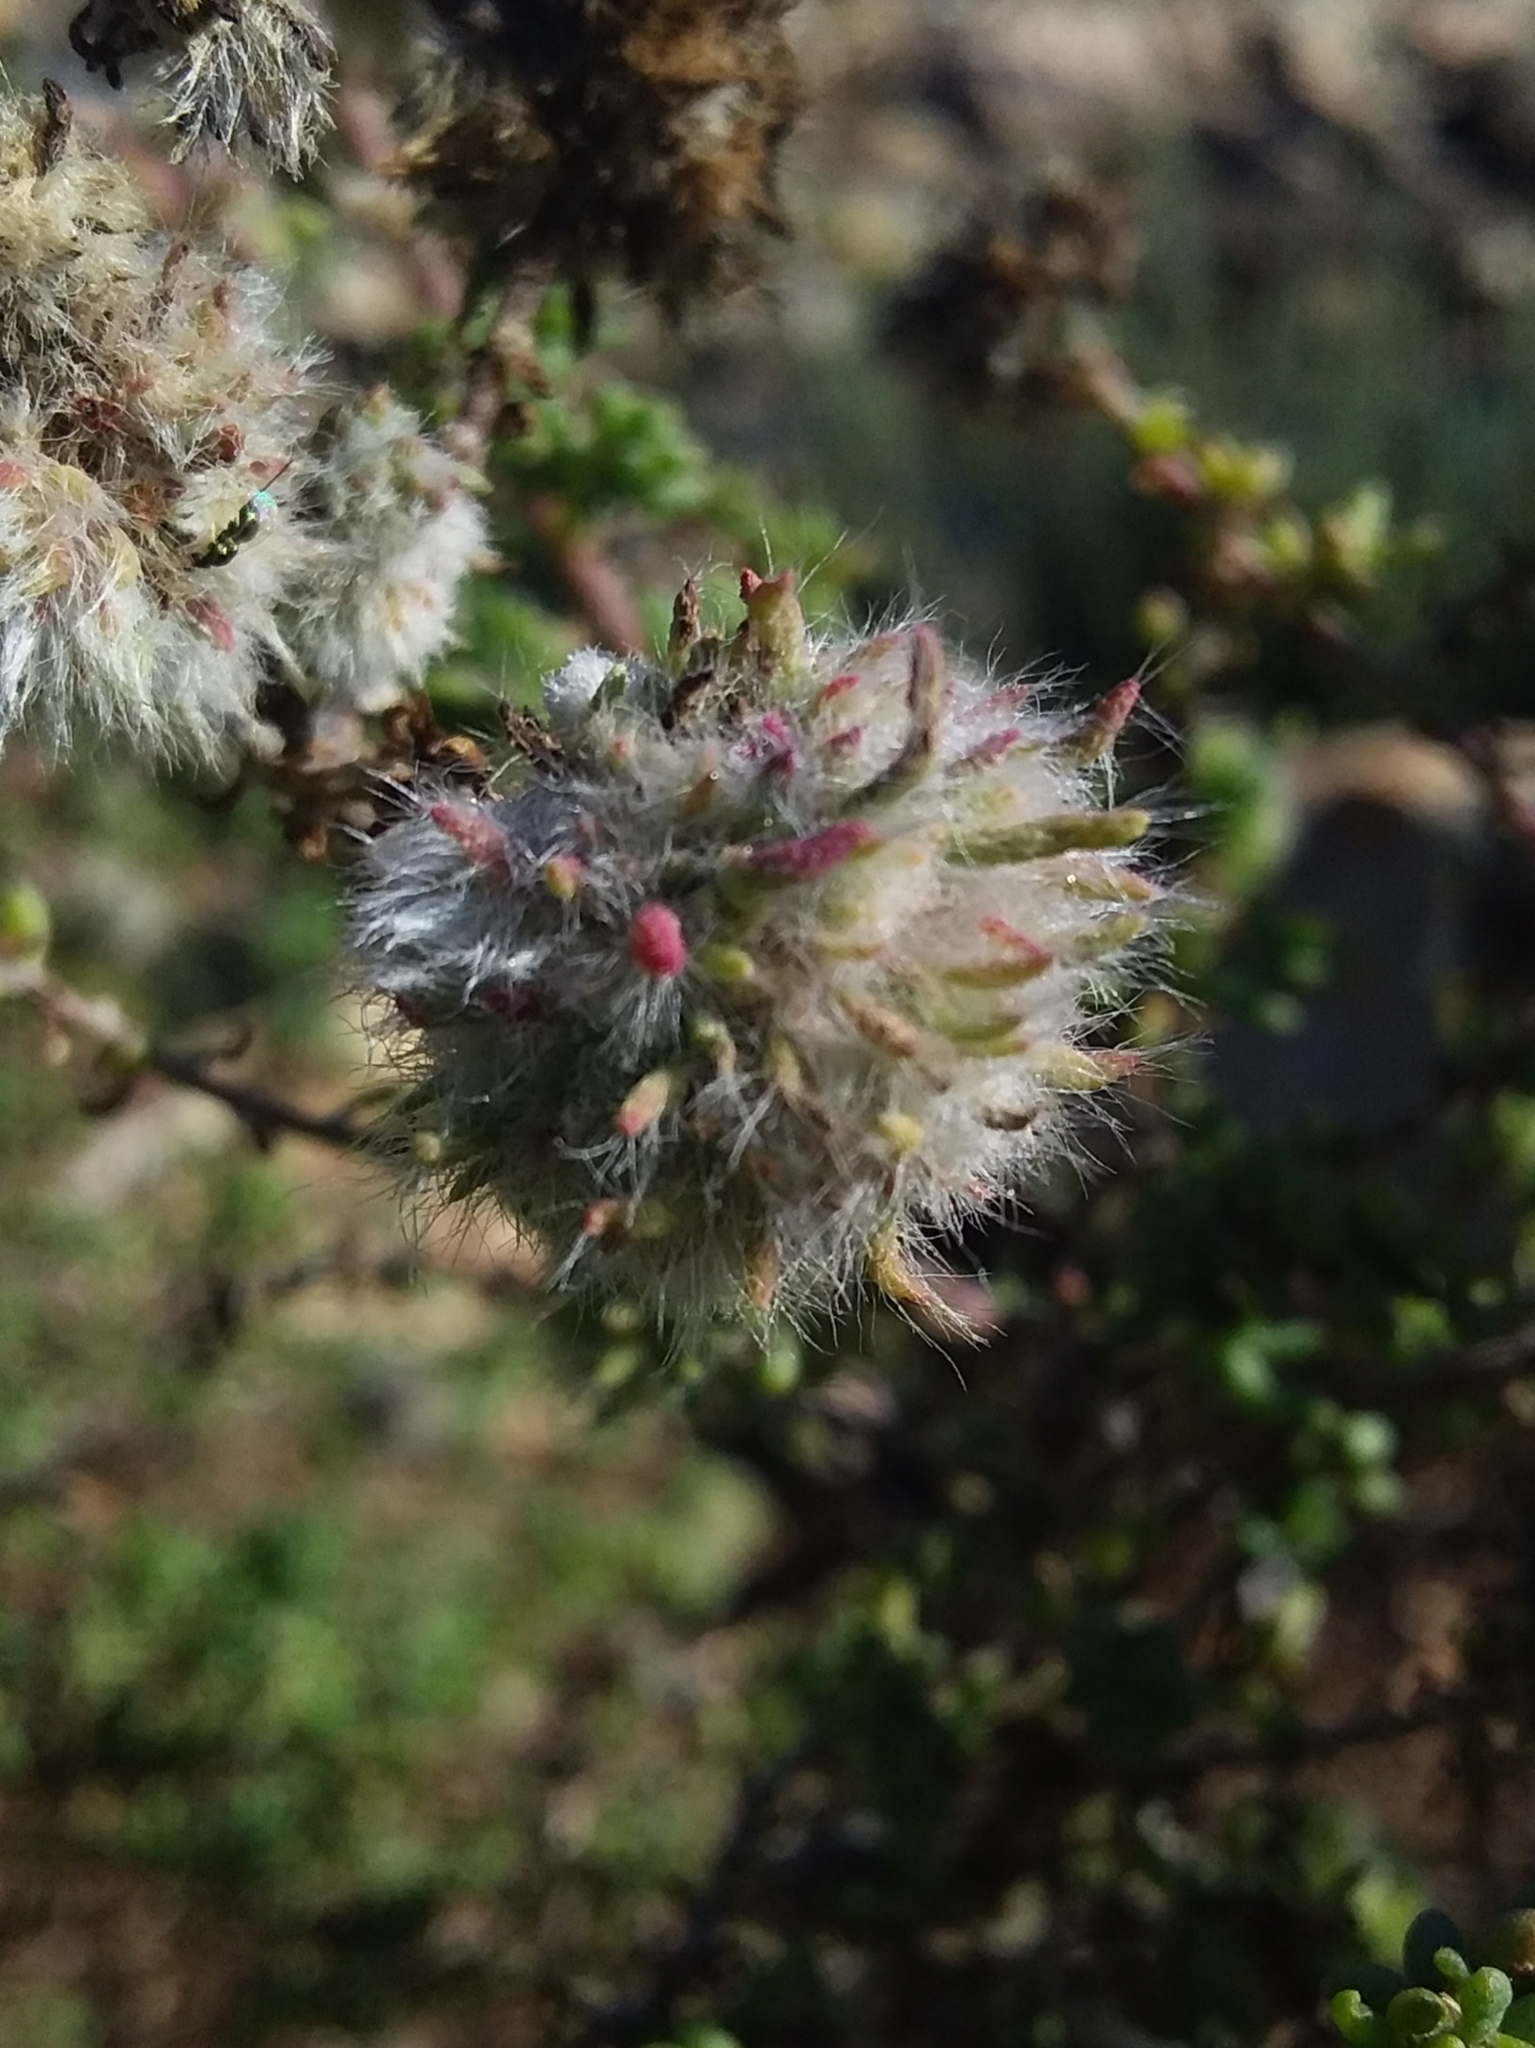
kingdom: Animalia
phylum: Arthropoda
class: Insecta
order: Diptera
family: Cecidomyiidae
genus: Dactylasioptera
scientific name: Dactylasioptera milnae
